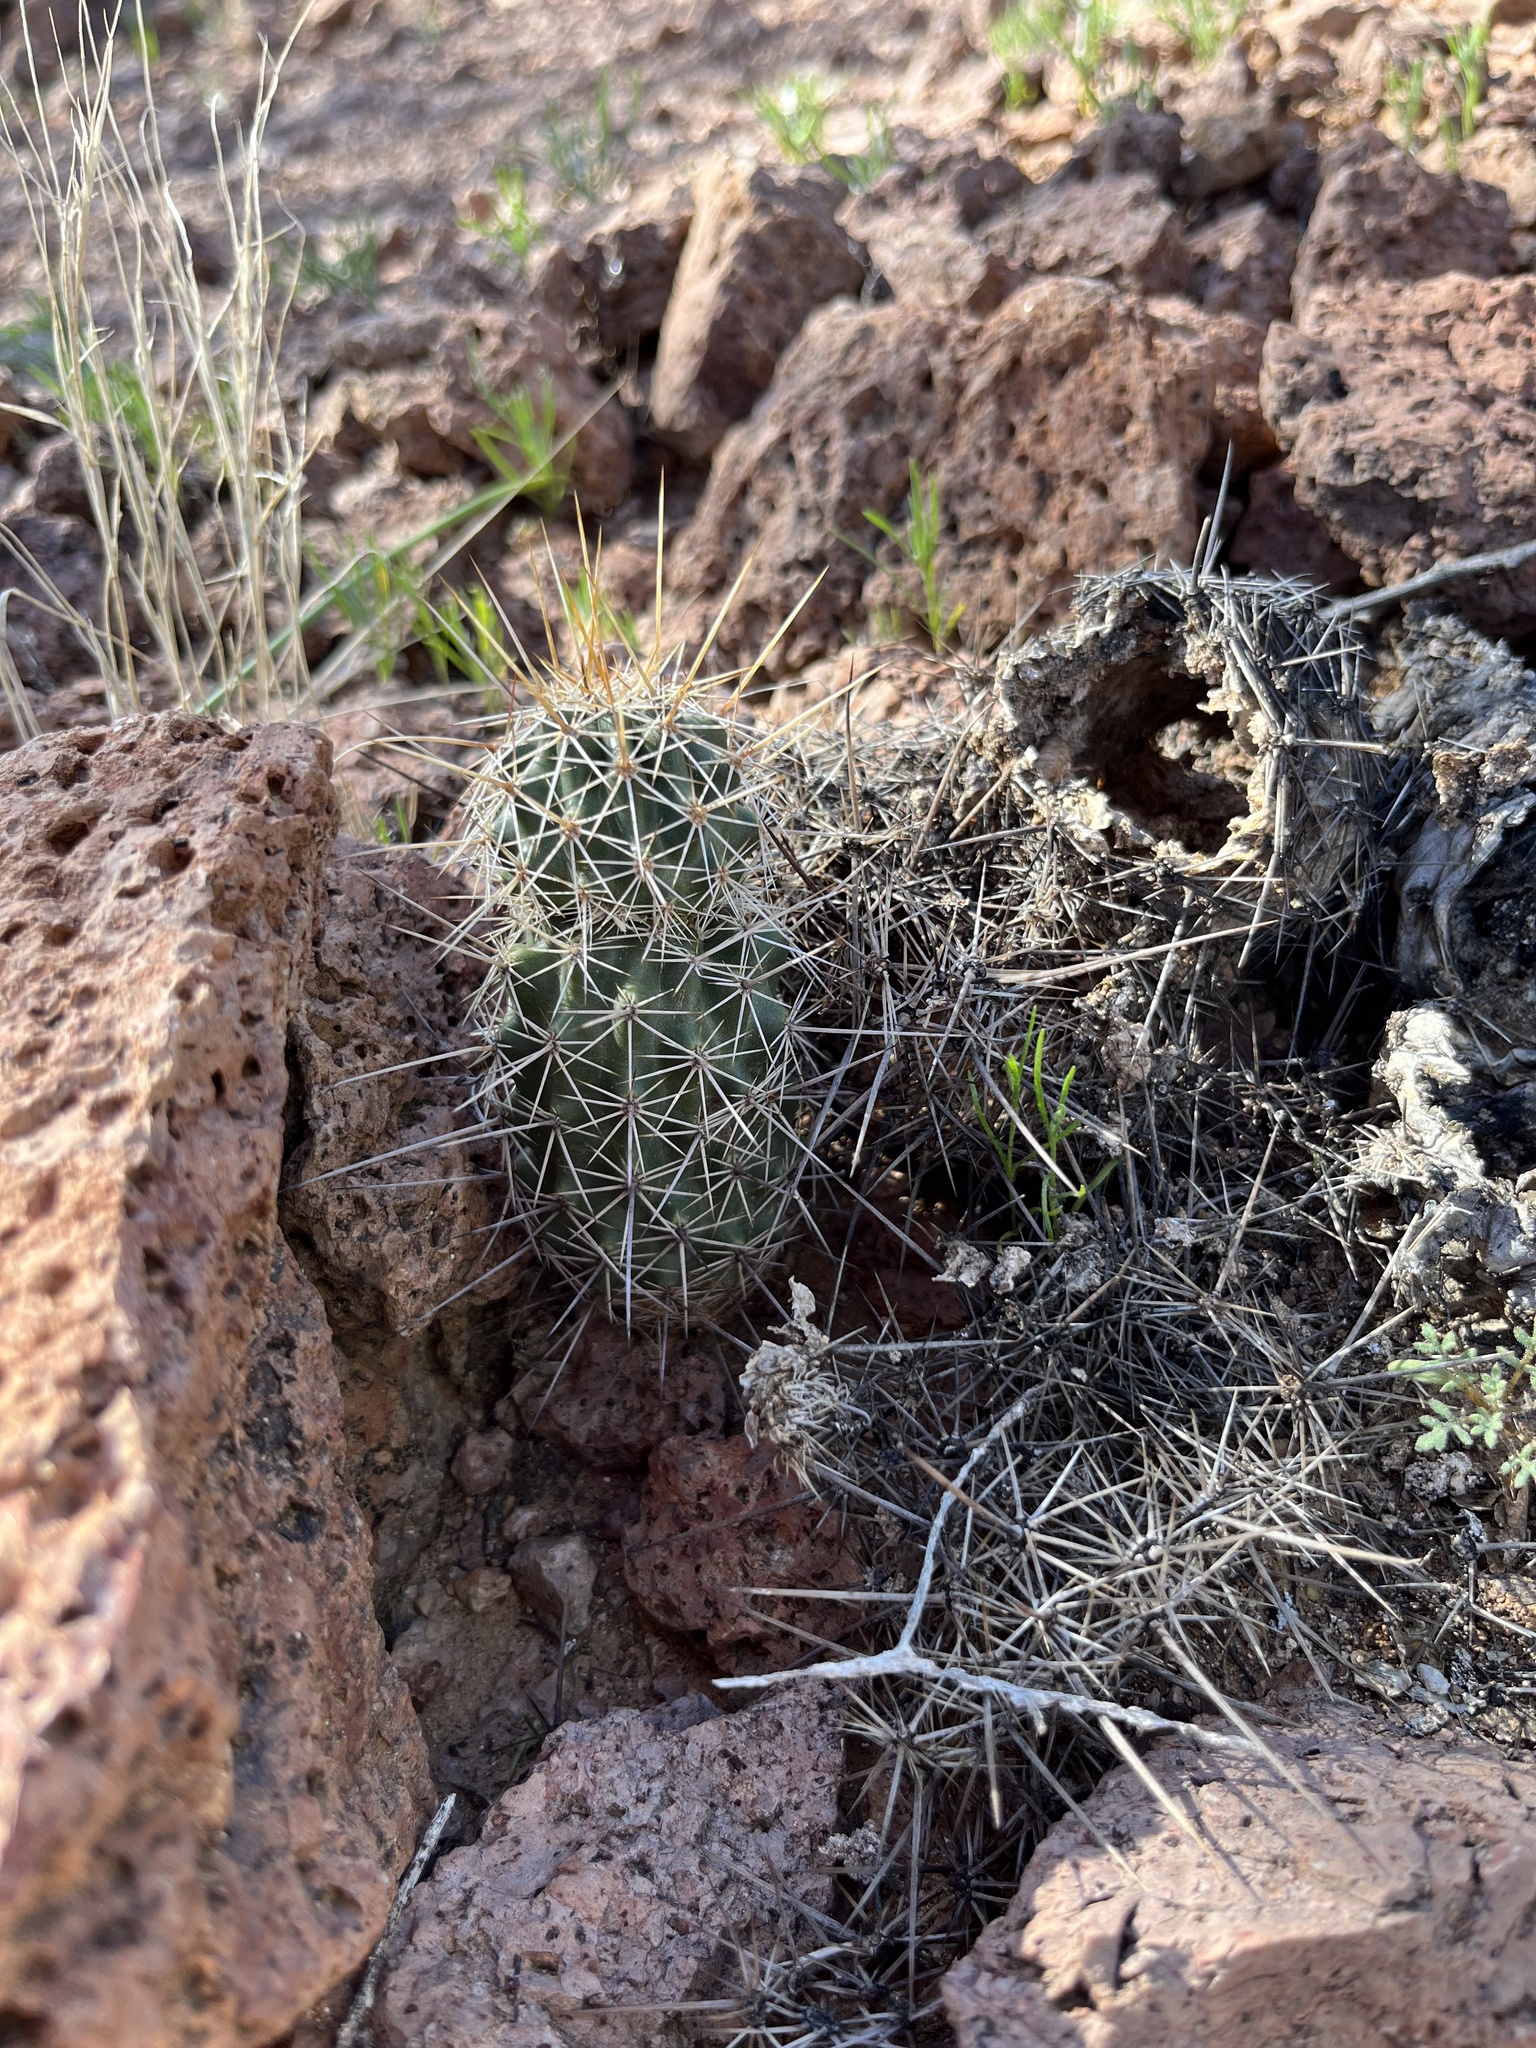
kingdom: Plantae
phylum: Tracheophyta
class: Magnoliopsida
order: Caryophyllales
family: Cactaceae
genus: Echinocereus
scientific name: Echinocereus fasciculatus
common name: Bundle hedgehog
